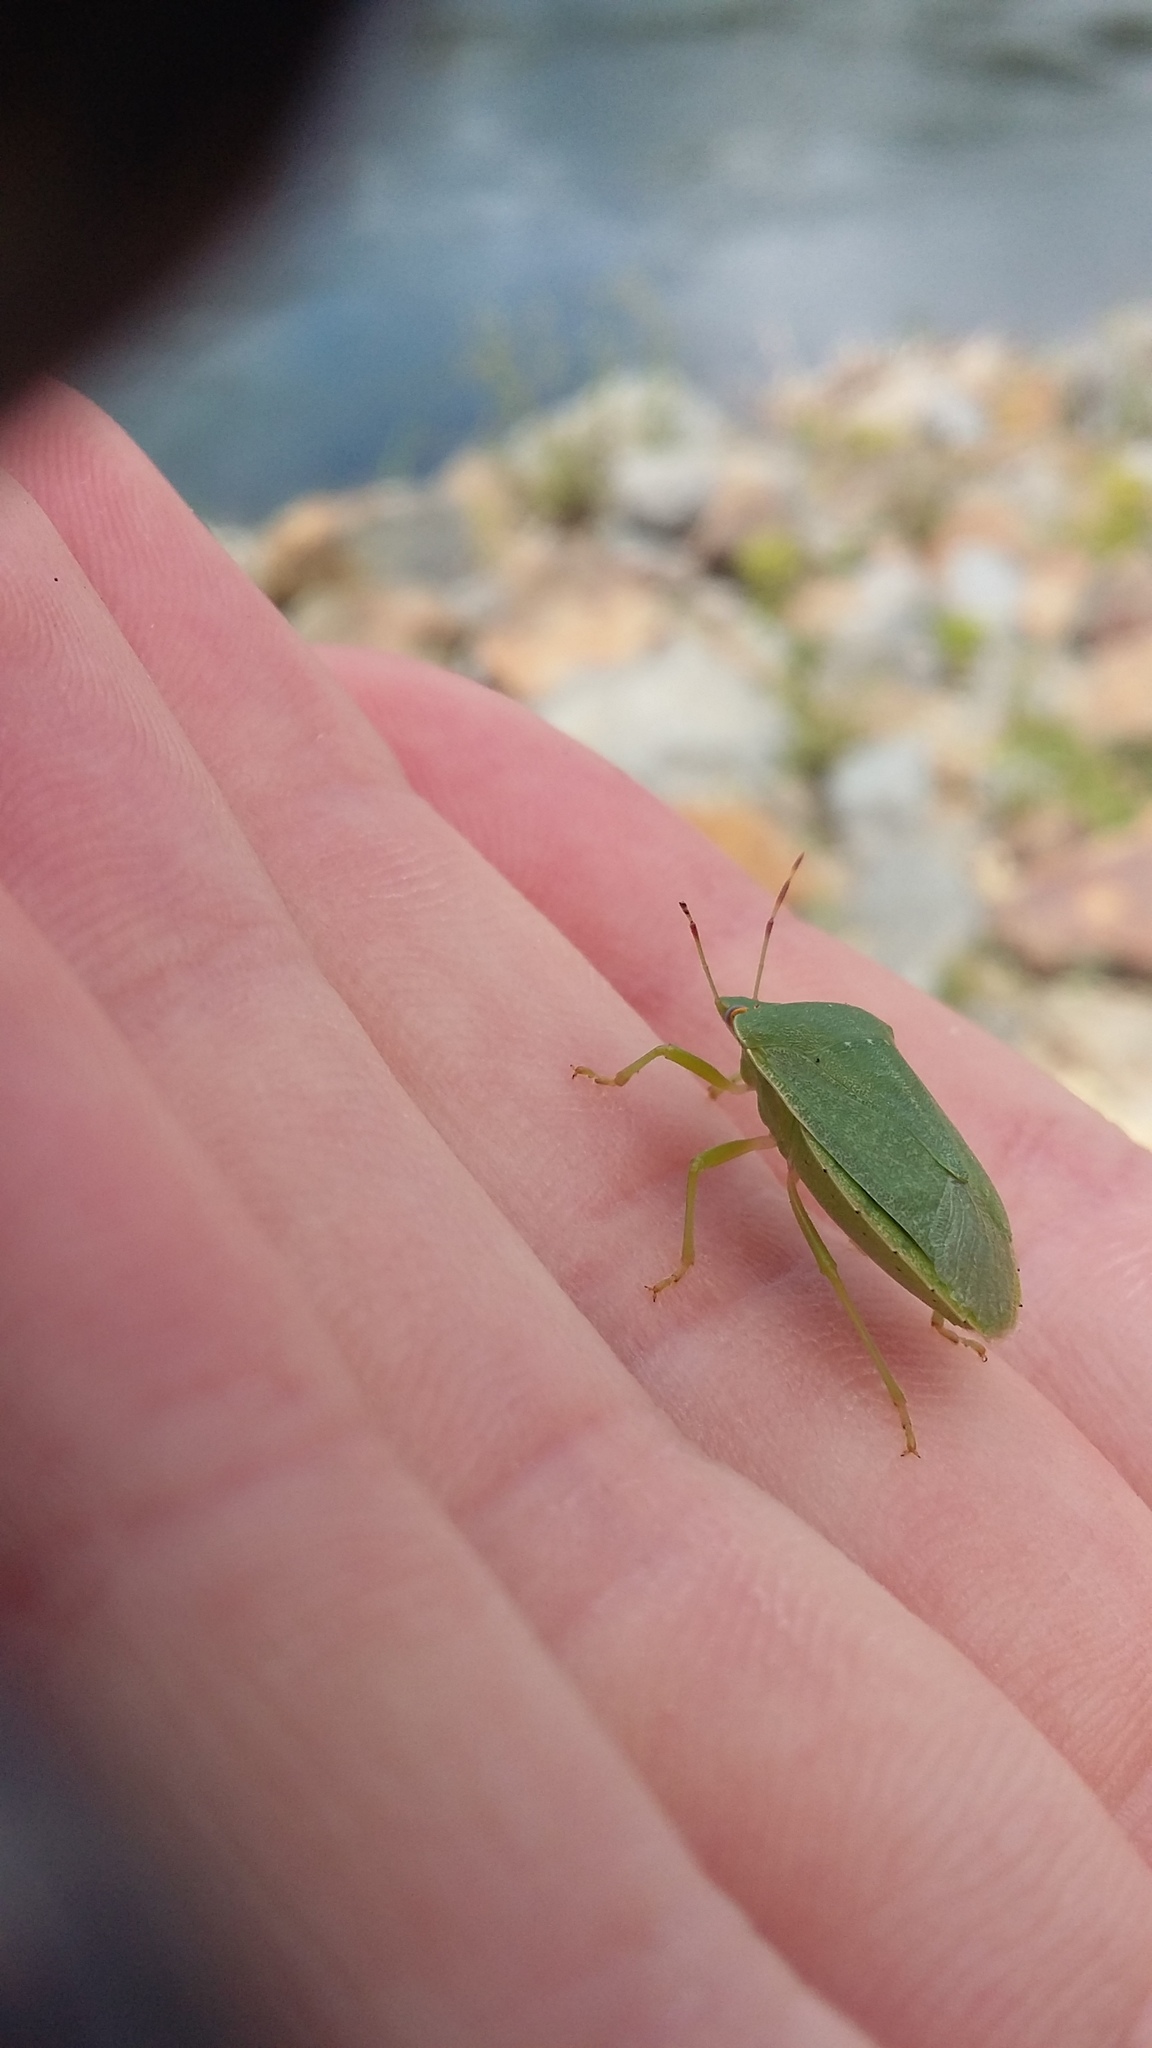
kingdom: Animalia
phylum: Arthropoda
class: Insecta
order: Hemiptera
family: Pentatomidae
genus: Nezara
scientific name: Nezara viridula
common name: Southern green stink bug
